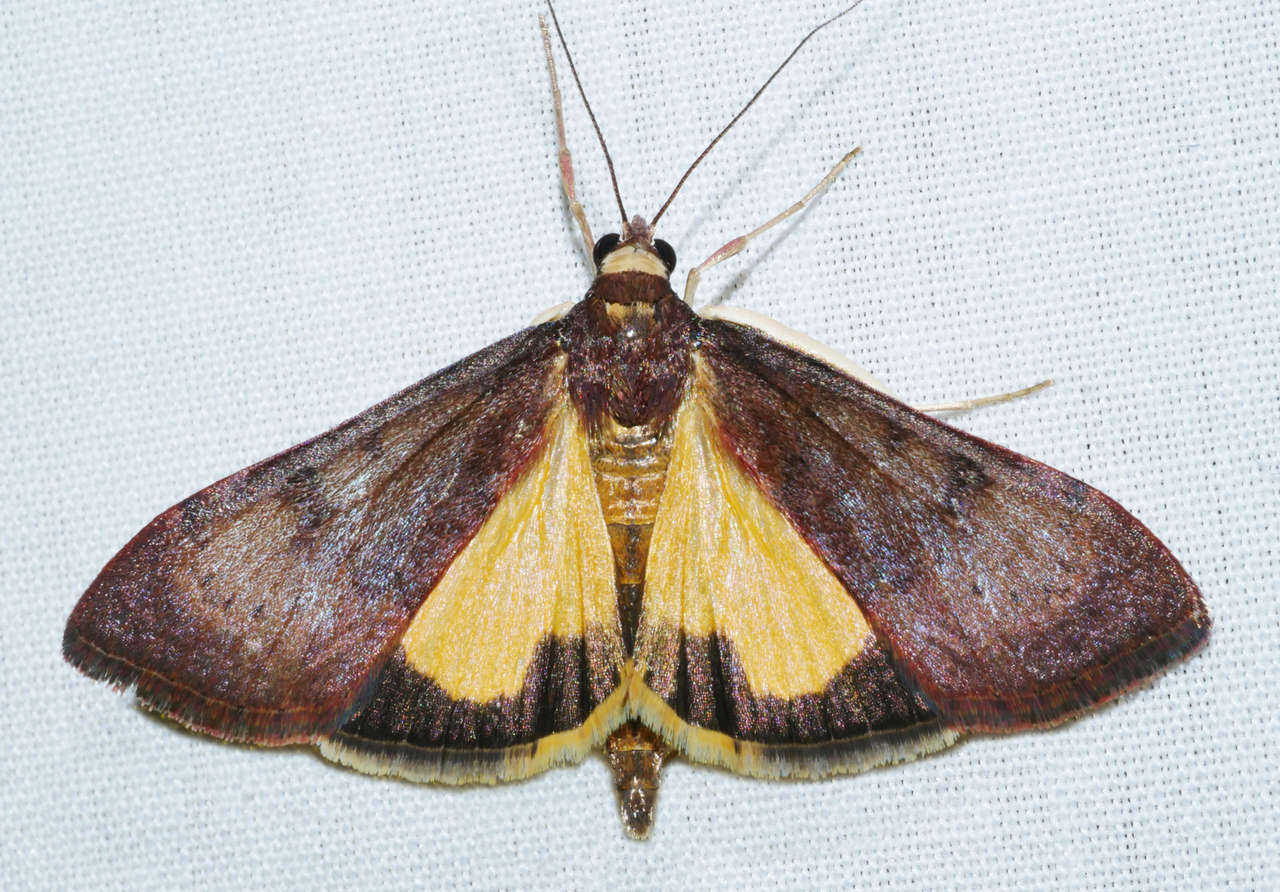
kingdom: Animalia
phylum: Arthropoda
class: Insecta
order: Lepidoptera
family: Crambidae
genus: Uresiphita
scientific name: Uresiphita ornithopteralis
